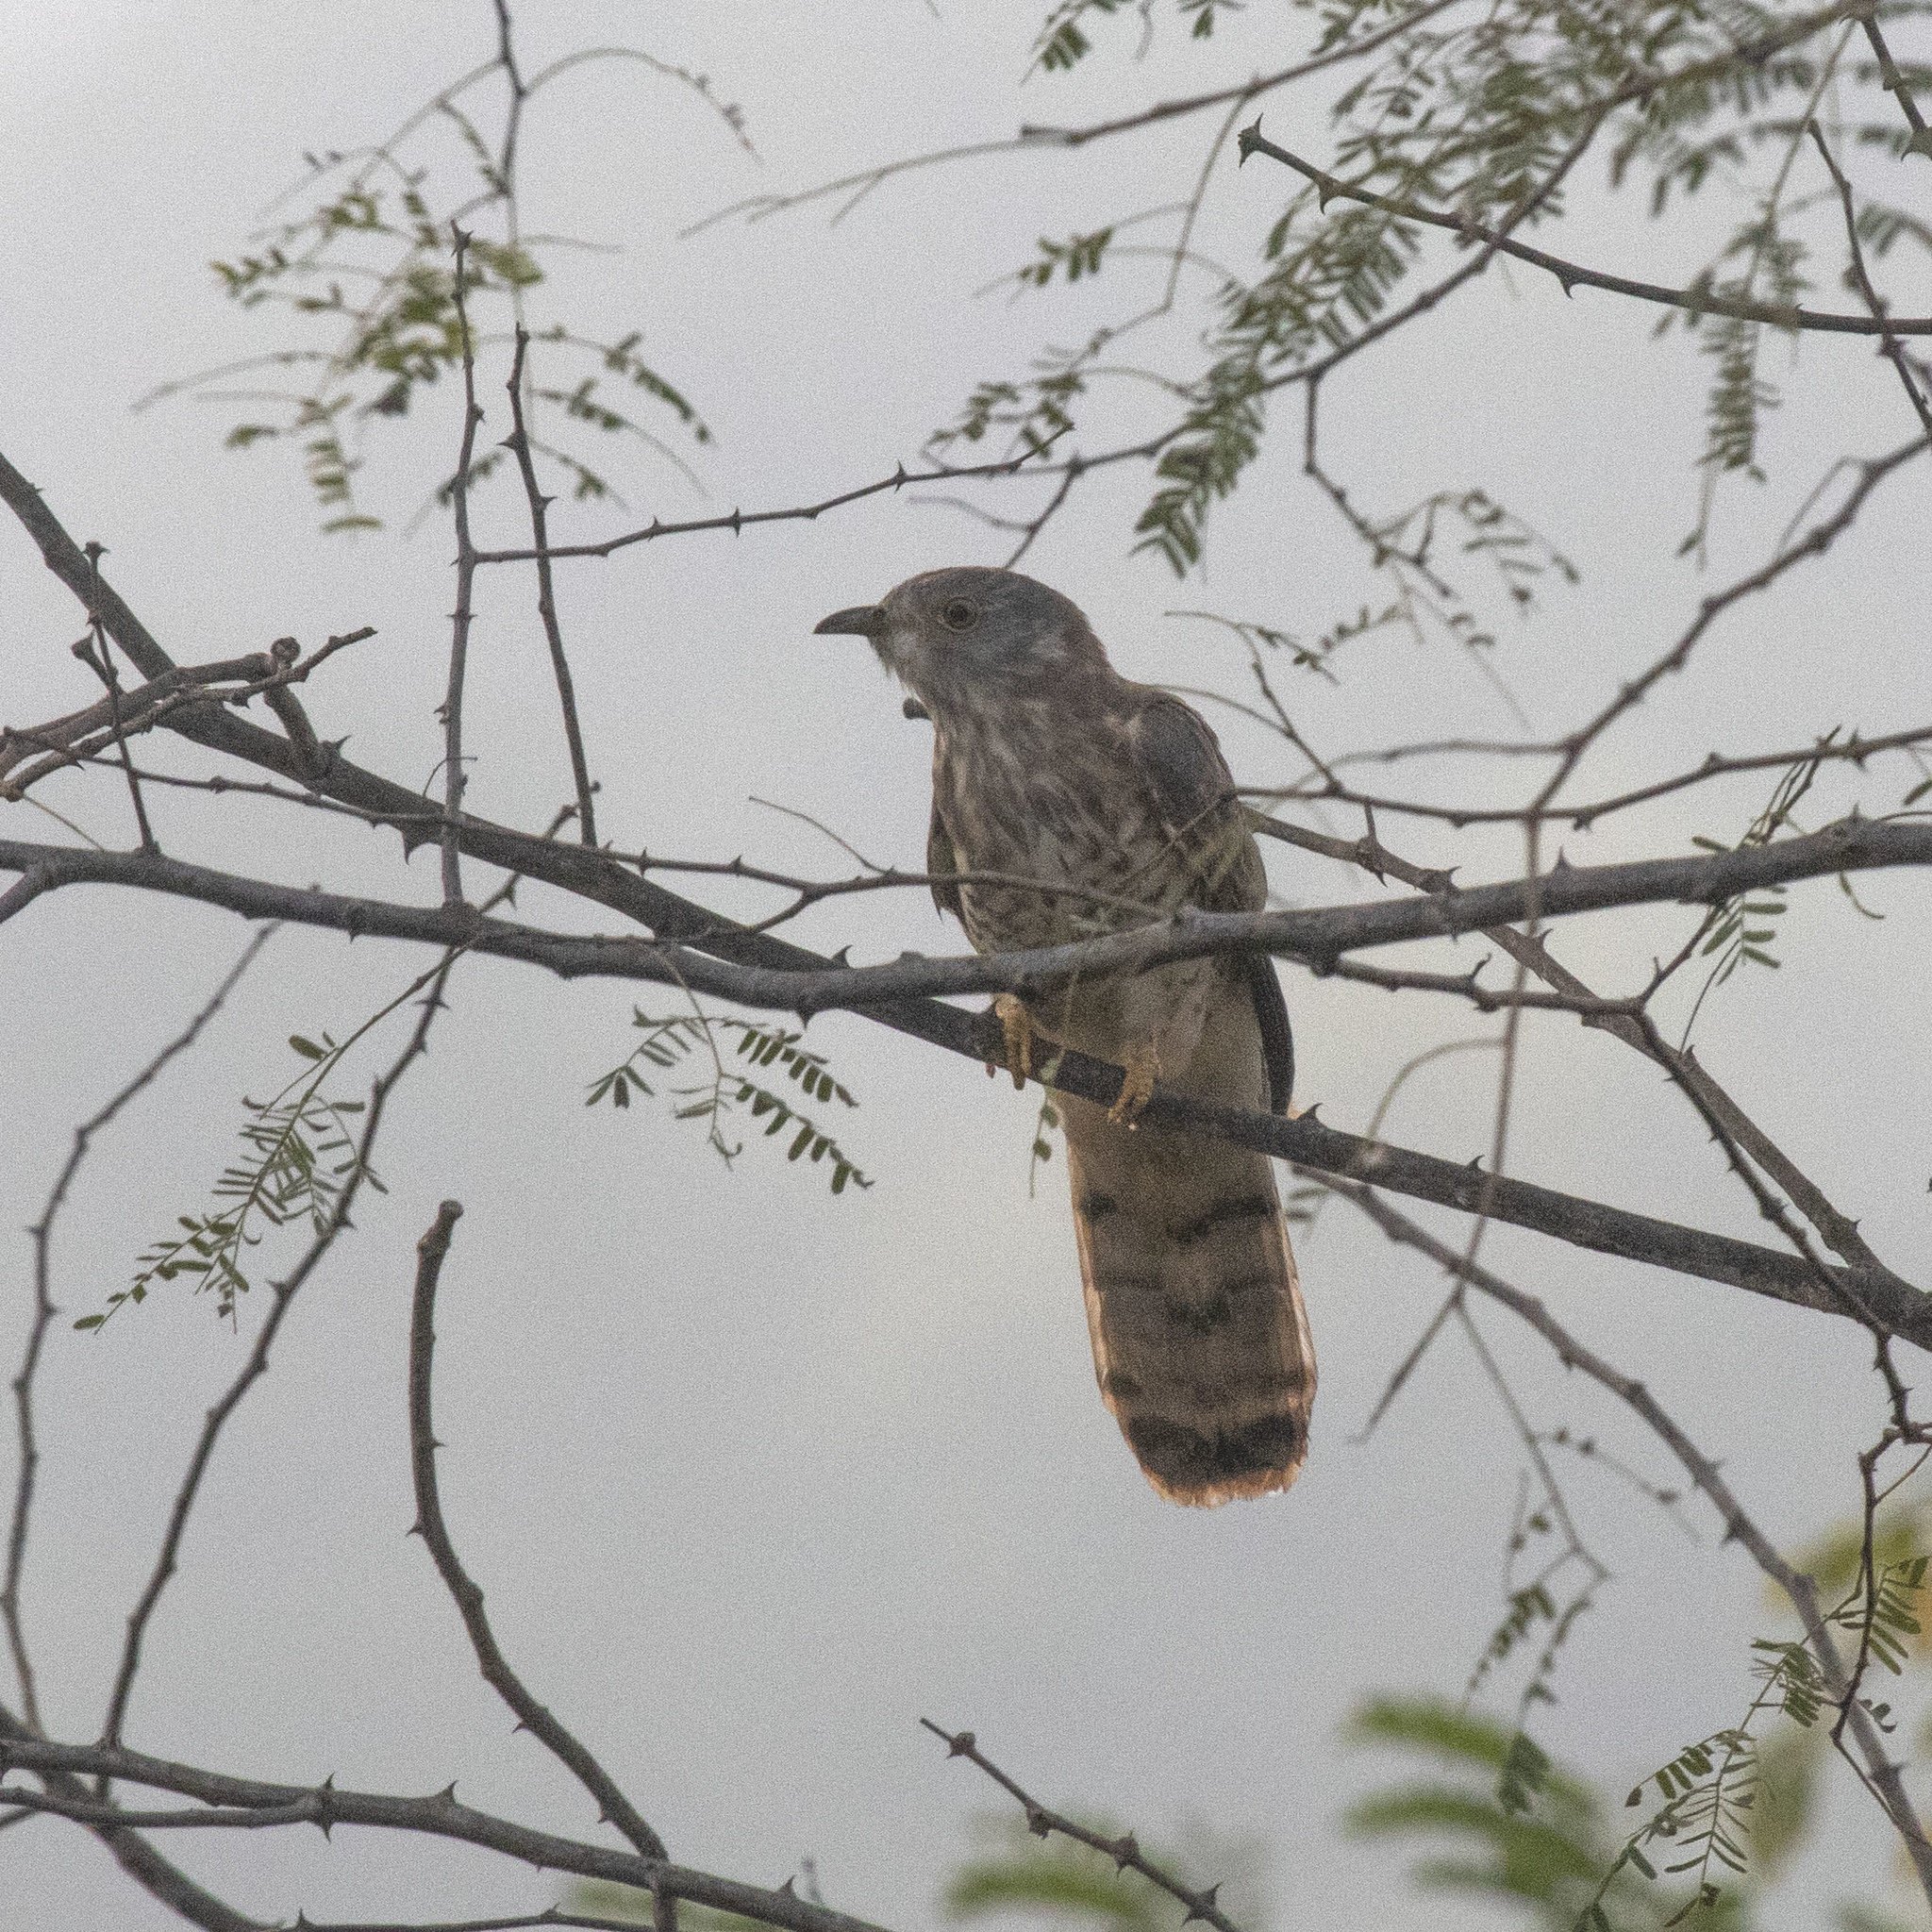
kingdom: Animalia
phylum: Chordata
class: Aves
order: Cuculiformes
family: Cuculidae
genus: Cuculus
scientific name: Cuculus varius
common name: Common hawk cuckoo
